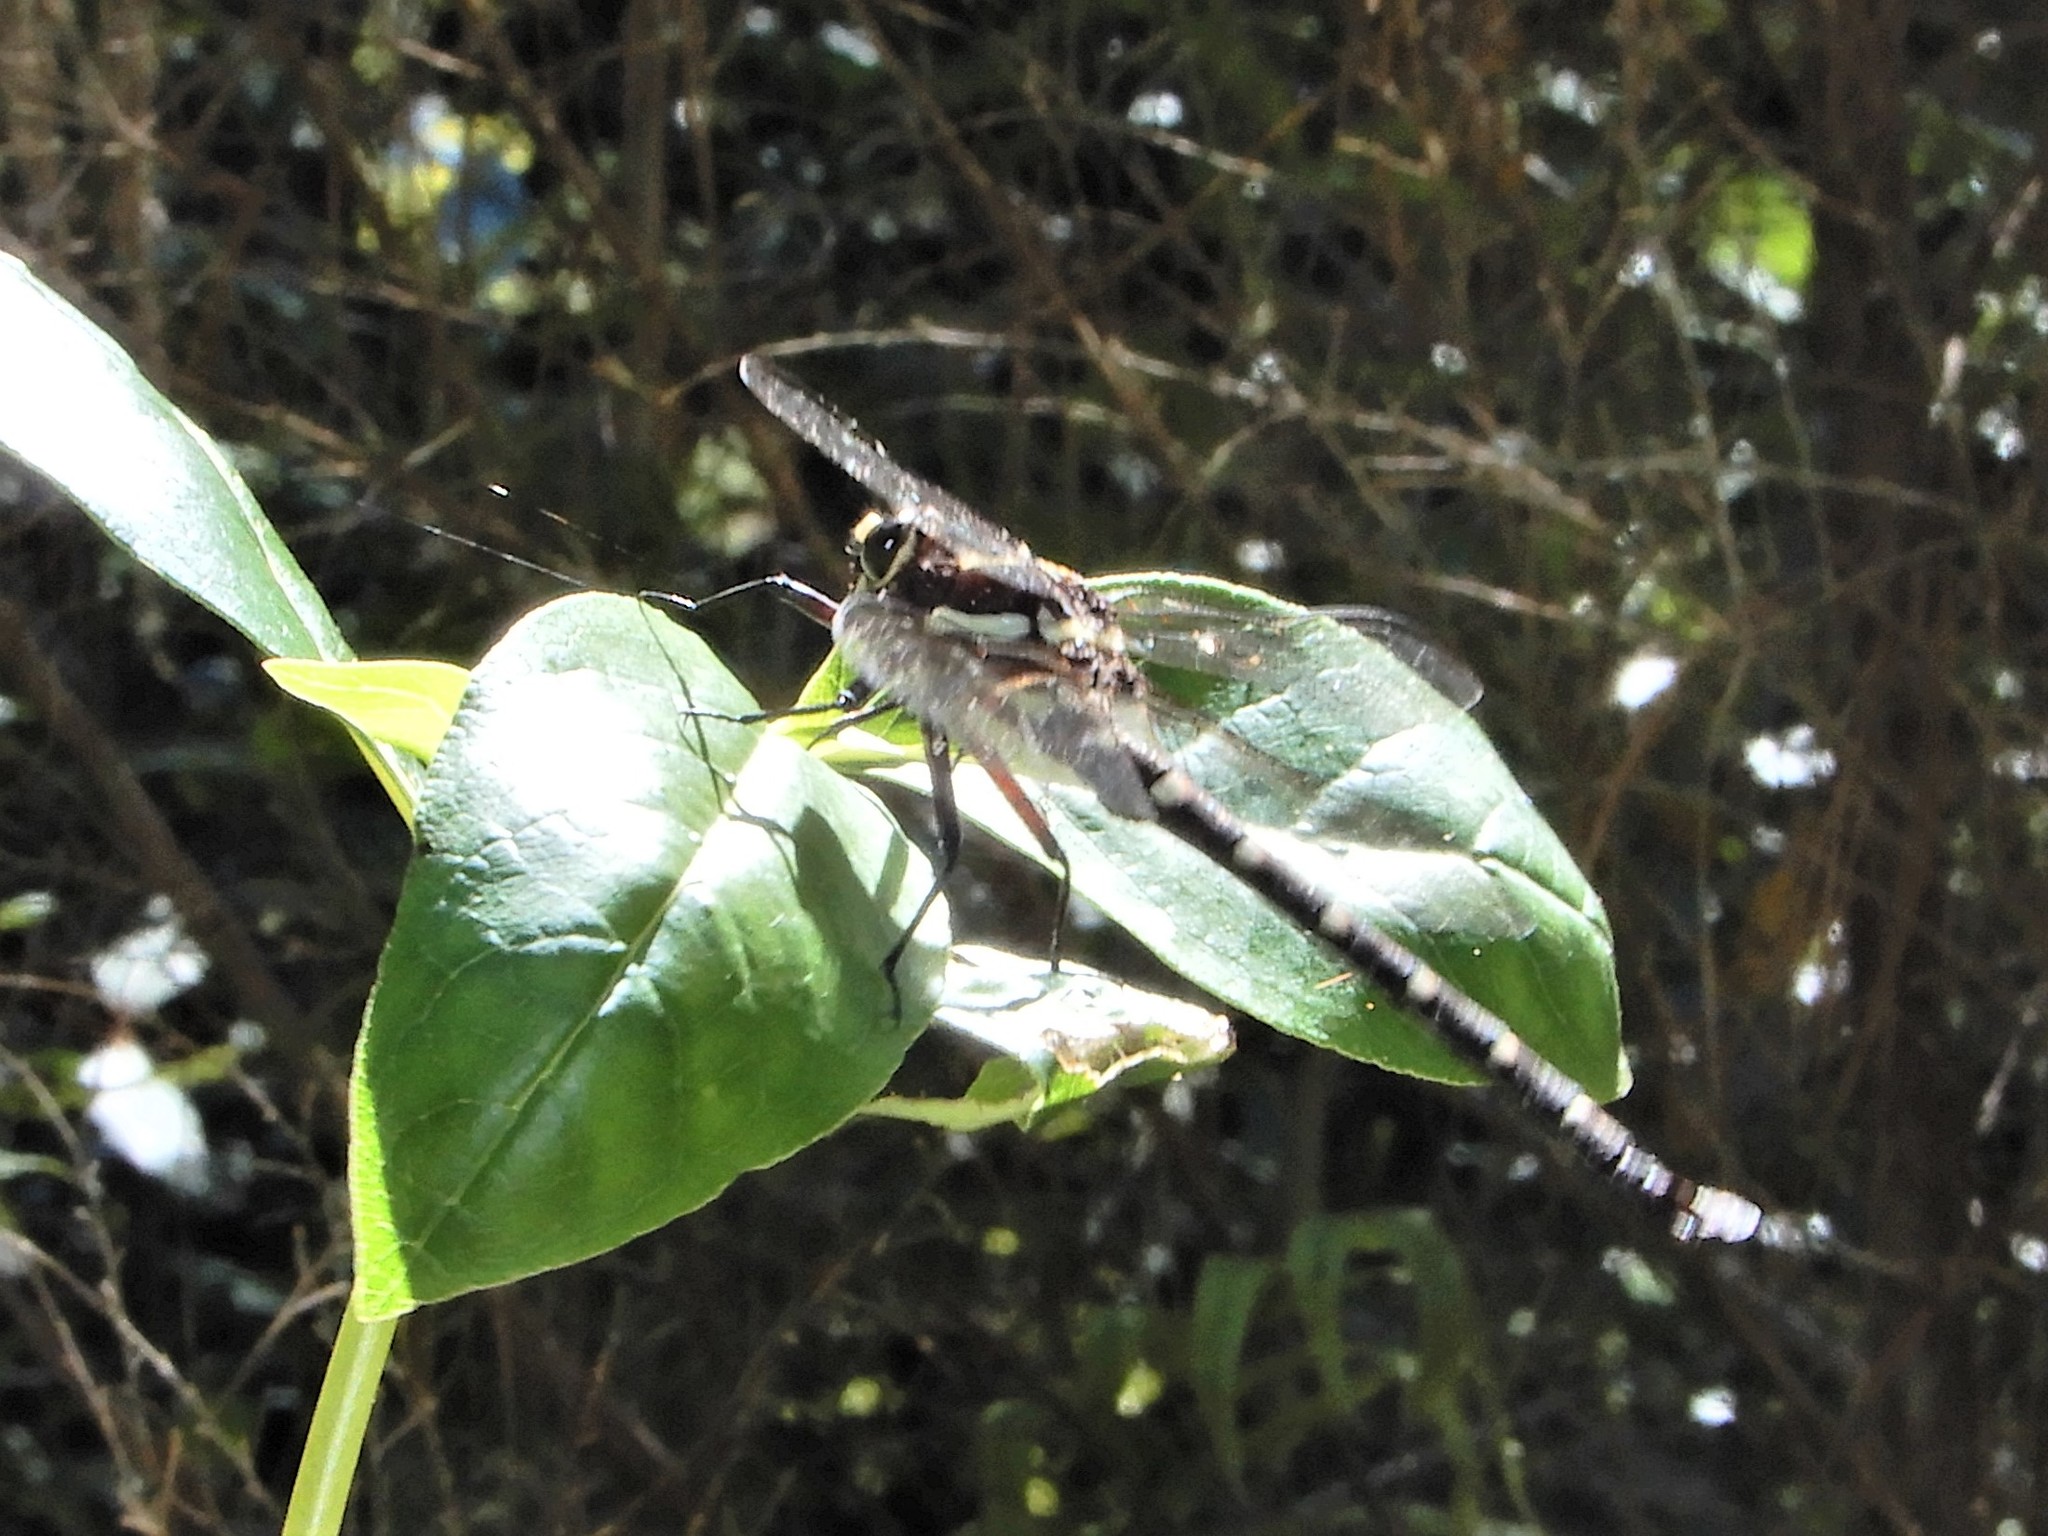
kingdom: Animalia
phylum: Arthropoda
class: Insecta
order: Odonata
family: Petaluridae
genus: Uropetala
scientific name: Uropetala carovei
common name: Bush giant dragonfly
